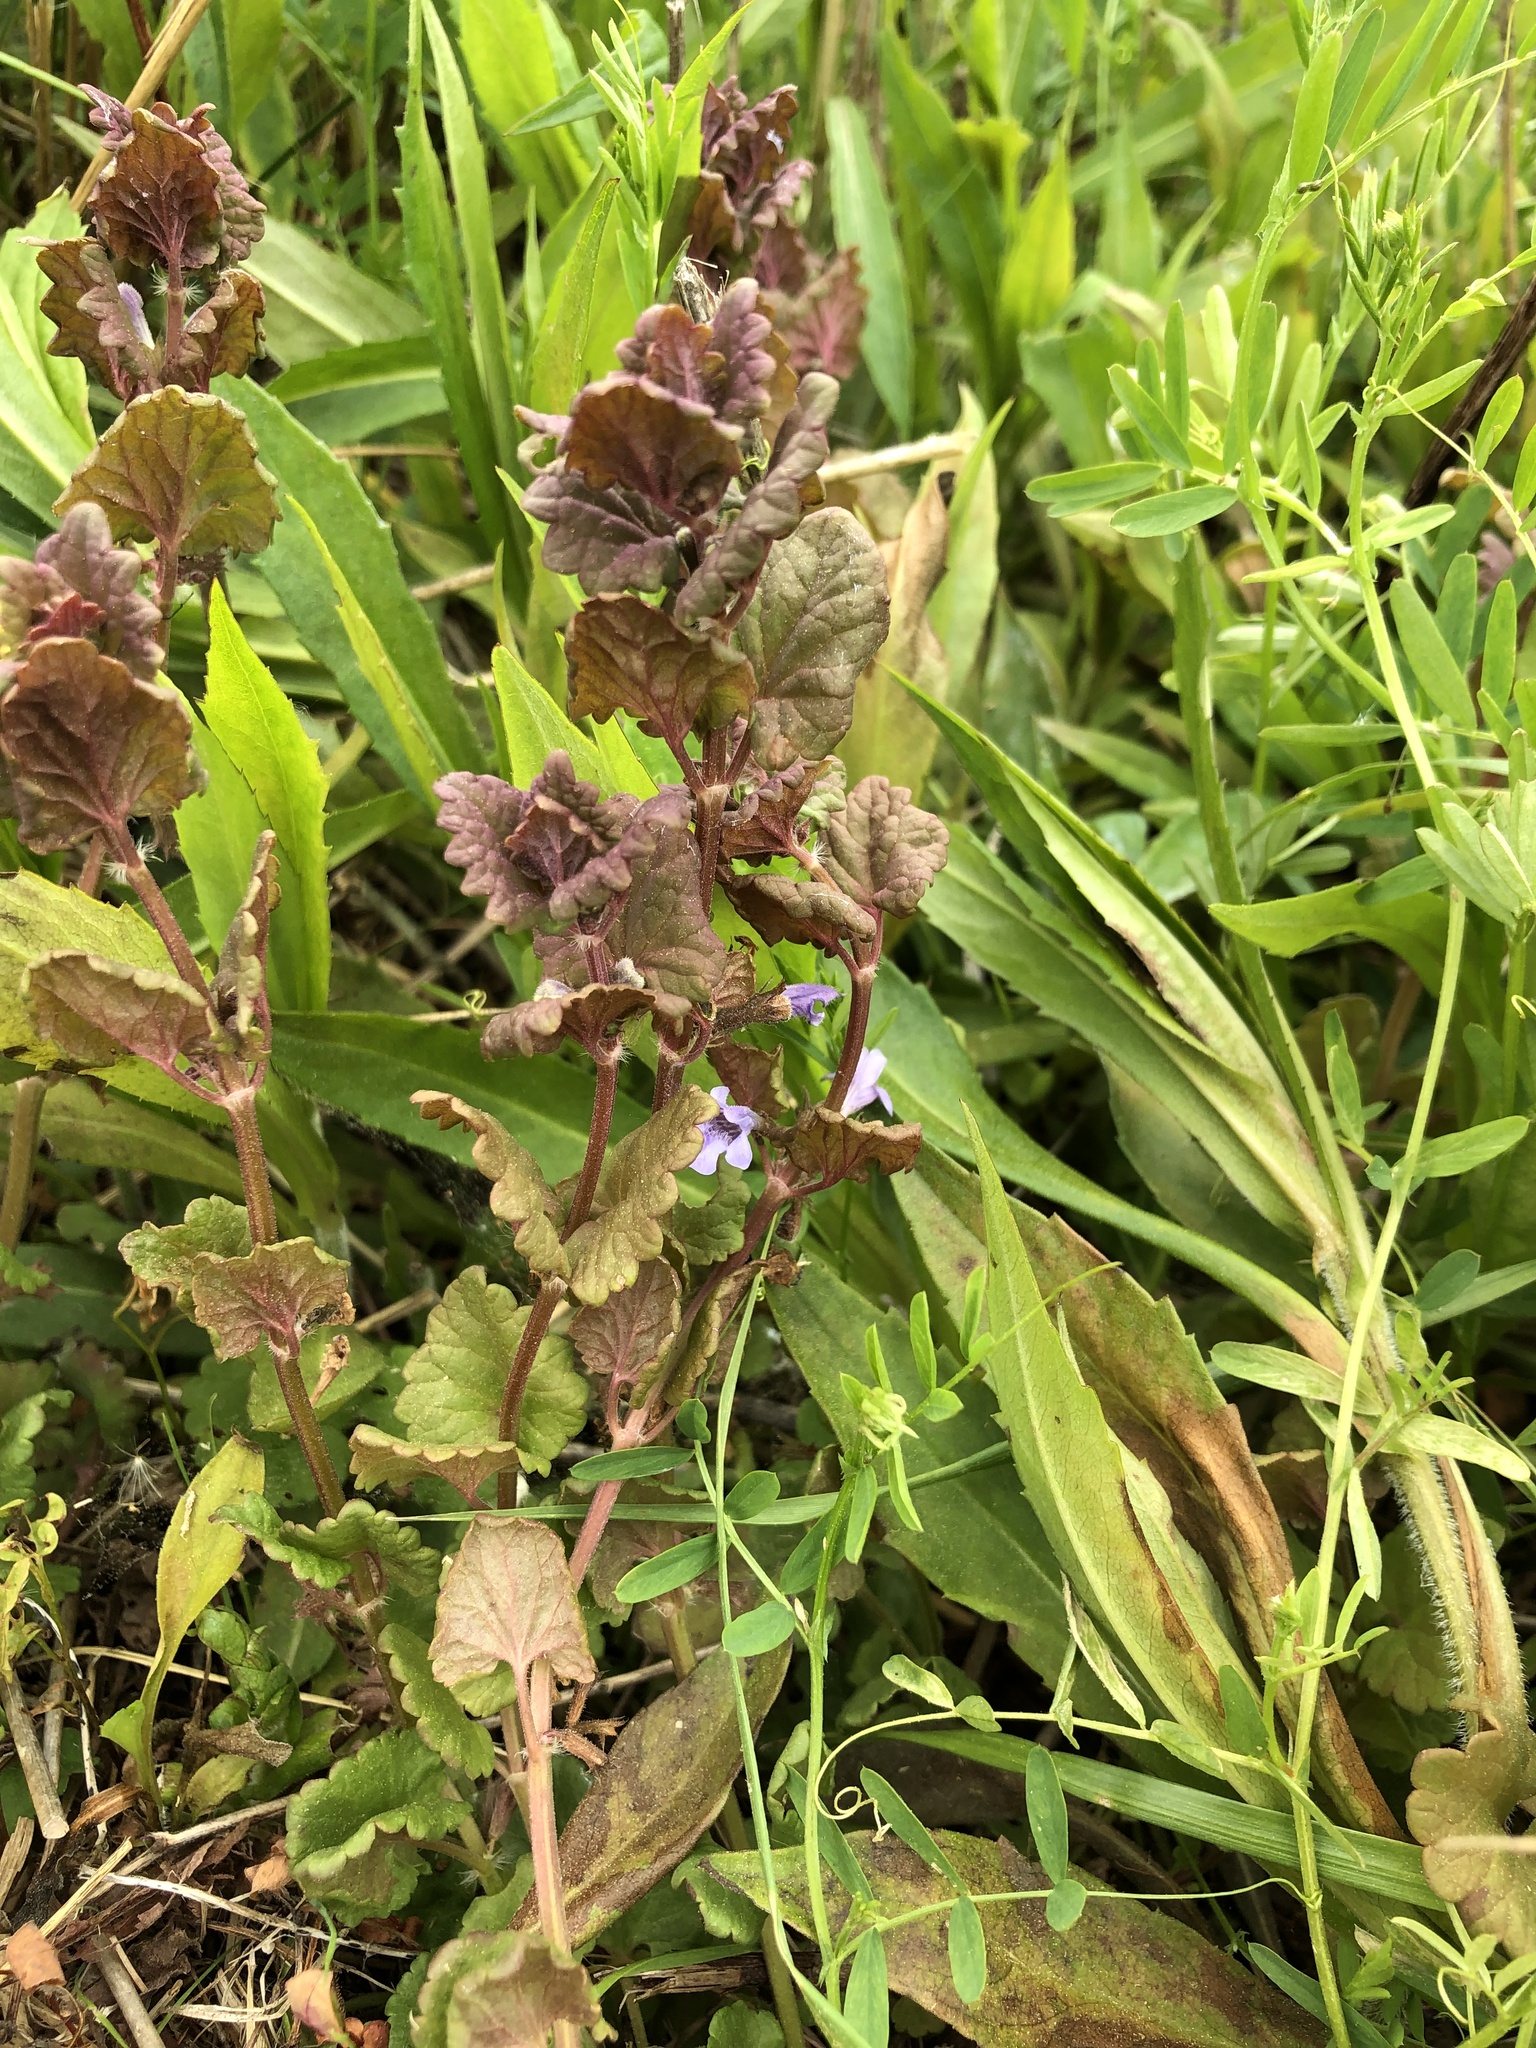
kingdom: Plantae
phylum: Tracheophyta
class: Magnoliopsida
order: Lamiales
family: Lamiaceae
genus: Glechoma
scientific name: Glechoma hederacea
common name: Ground ivy
